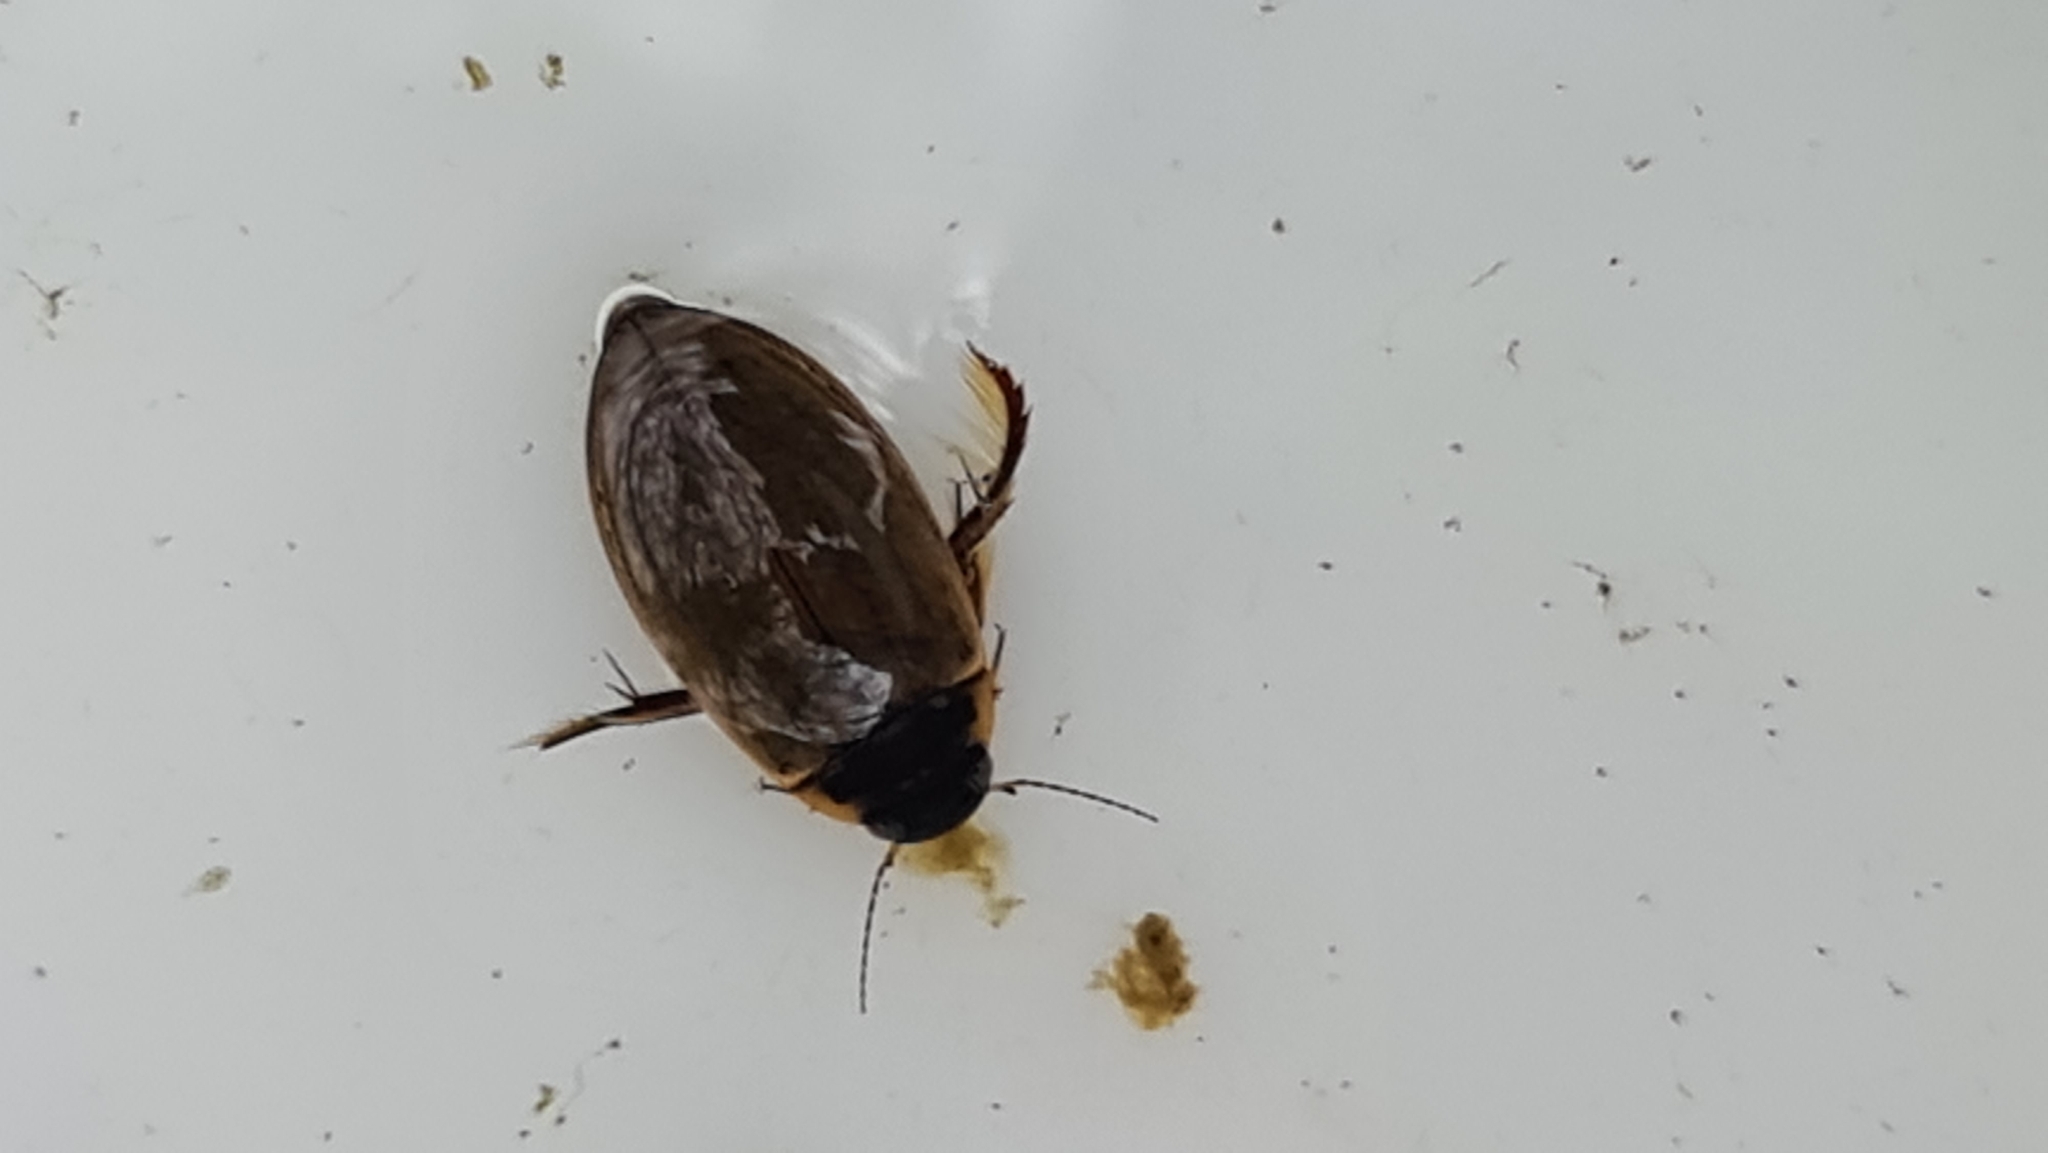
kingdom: Animalia
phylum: Arthropoda
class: Insecta
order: Coleoptera
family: Dytiscidae
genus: Colymbetes
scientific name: Colymbetes fuscus
